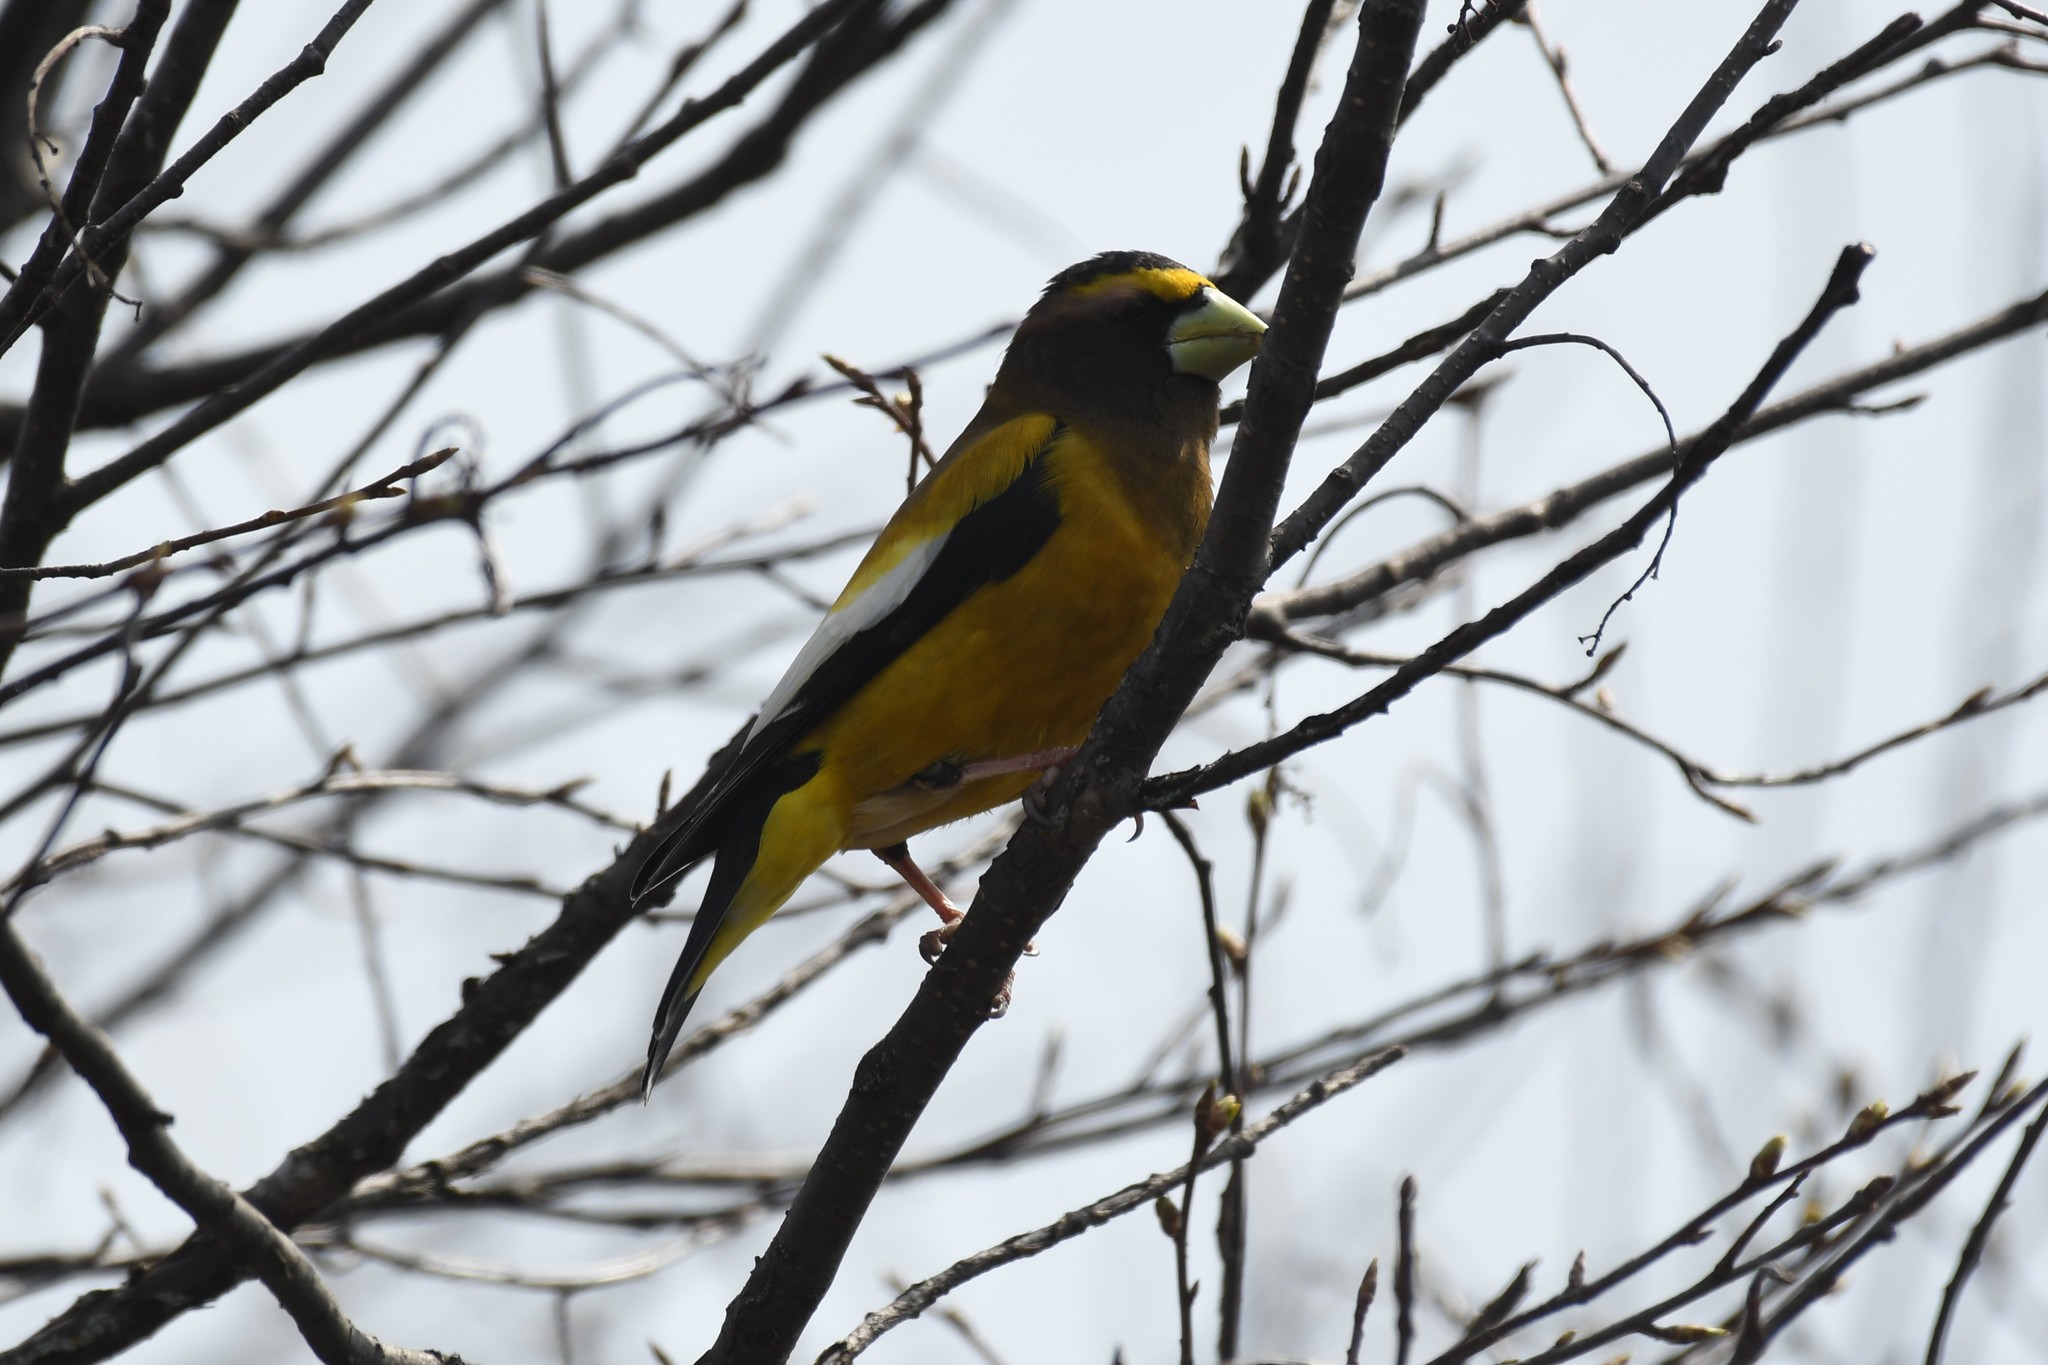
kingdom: Animalia
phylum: Chordata
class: Aves
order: Passeriformes
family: Fringillidae
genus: Hesperiphona
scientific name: Hesperiphona vespertina
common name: Evening grosbeak
